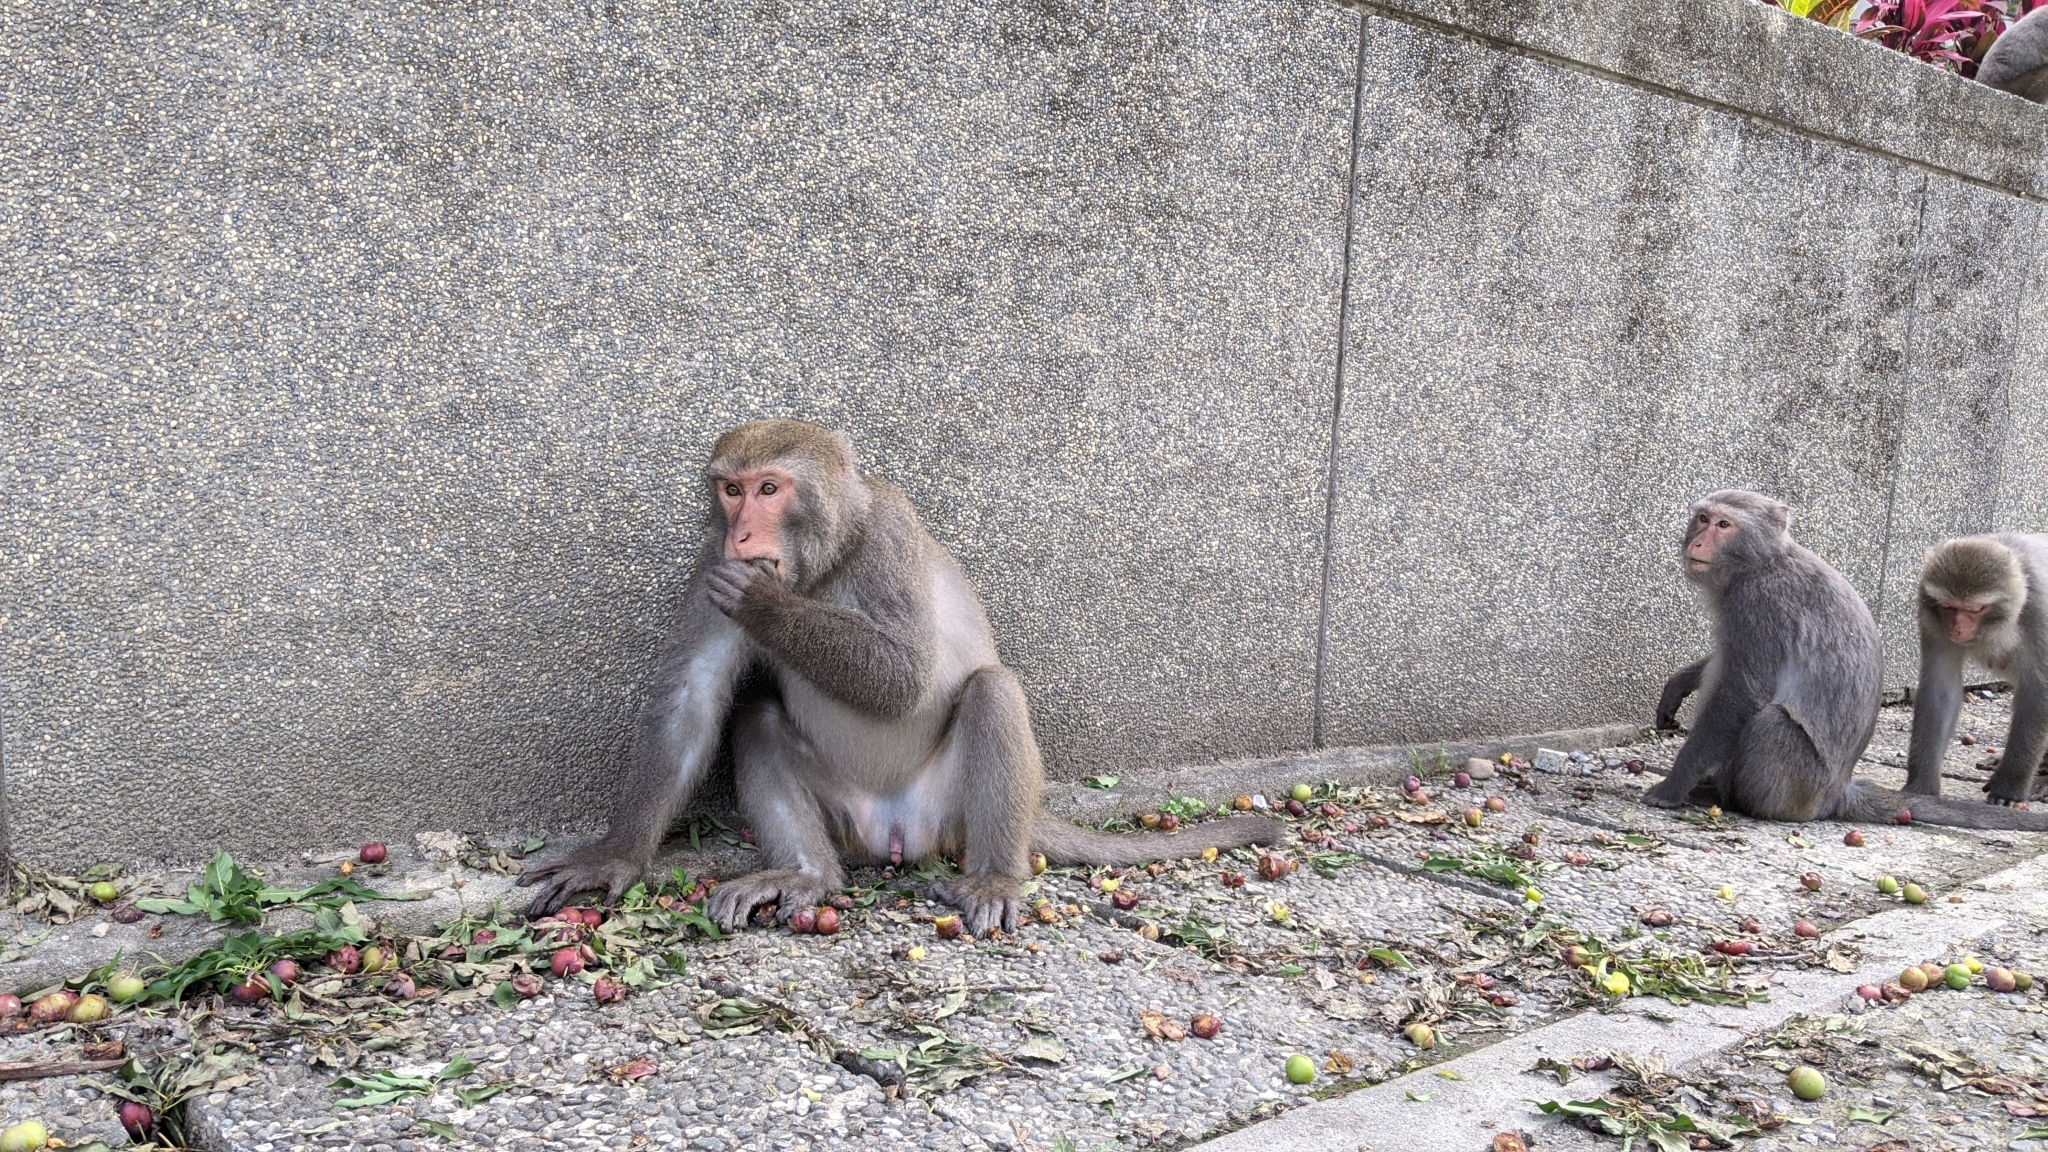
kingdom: Animalia
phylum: Chordata
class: Mammalia
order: Primates
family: Cercopithecidae
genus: Macaca
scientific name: Macaca cyclopis
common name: Formosan rock macaque
